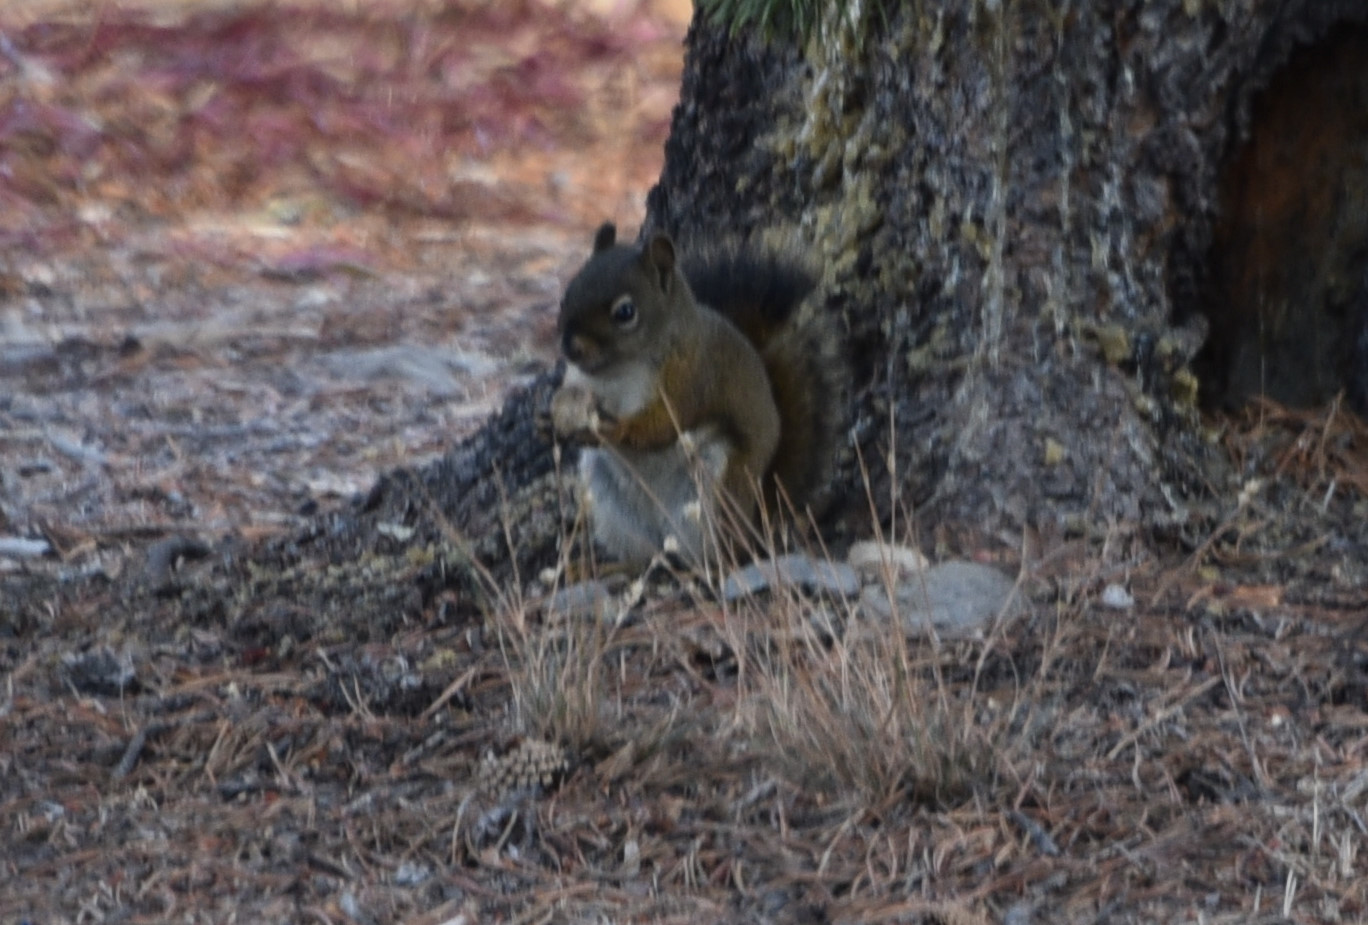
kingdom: Animalia
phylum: Chordata
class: Mammalia
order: Rodentia
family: Sciuridae
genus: Tamiasciurus
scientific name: Tamiasciurus hudsonicus
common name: Red squirrel
